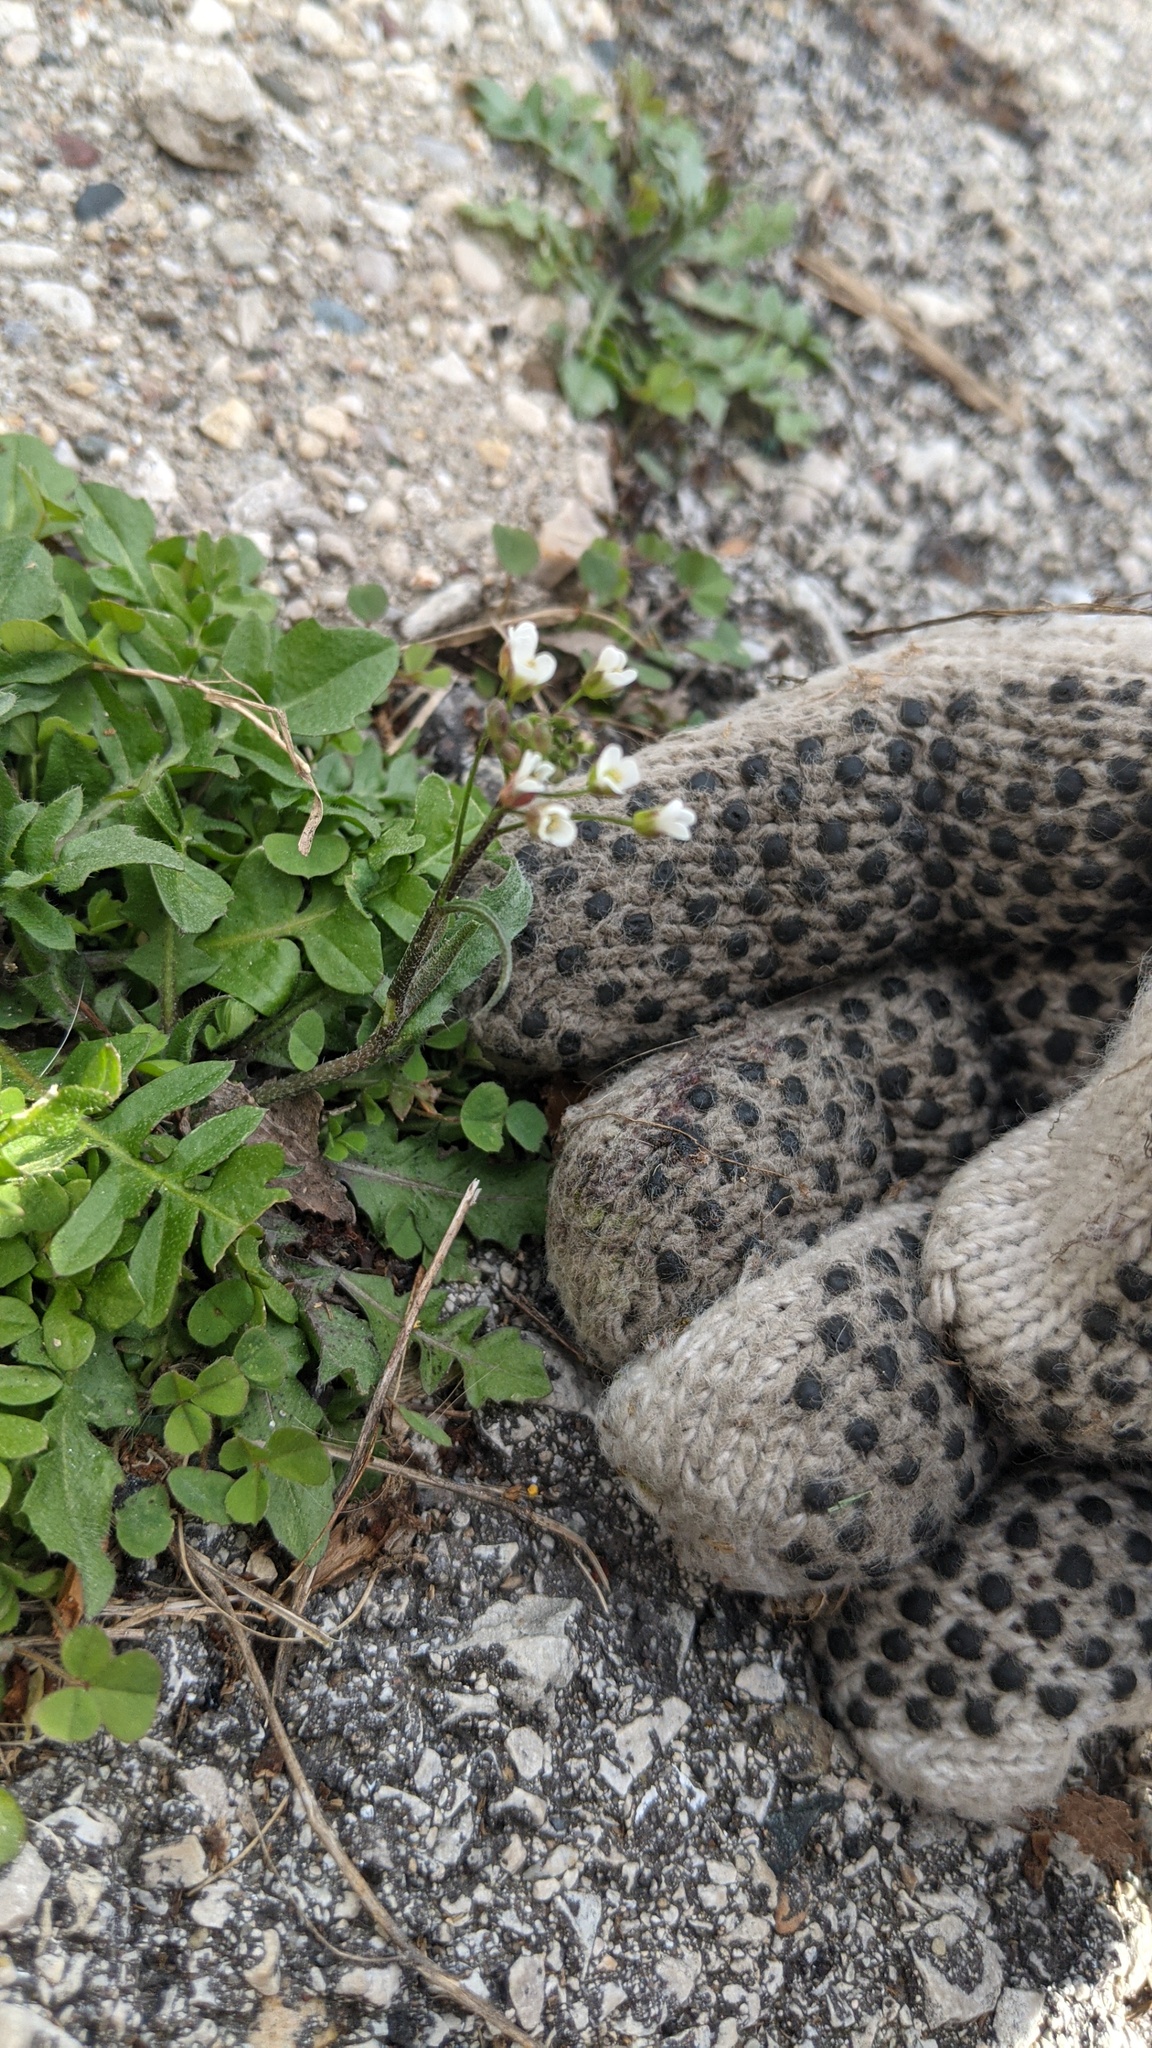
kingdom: Plantae
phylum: Tracheophyta
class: Magnoliopsida
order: Brassicales
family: Brassicaceae
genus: Capsella
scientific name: Capsella bursa-pastoris
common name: Shepherd's purse
